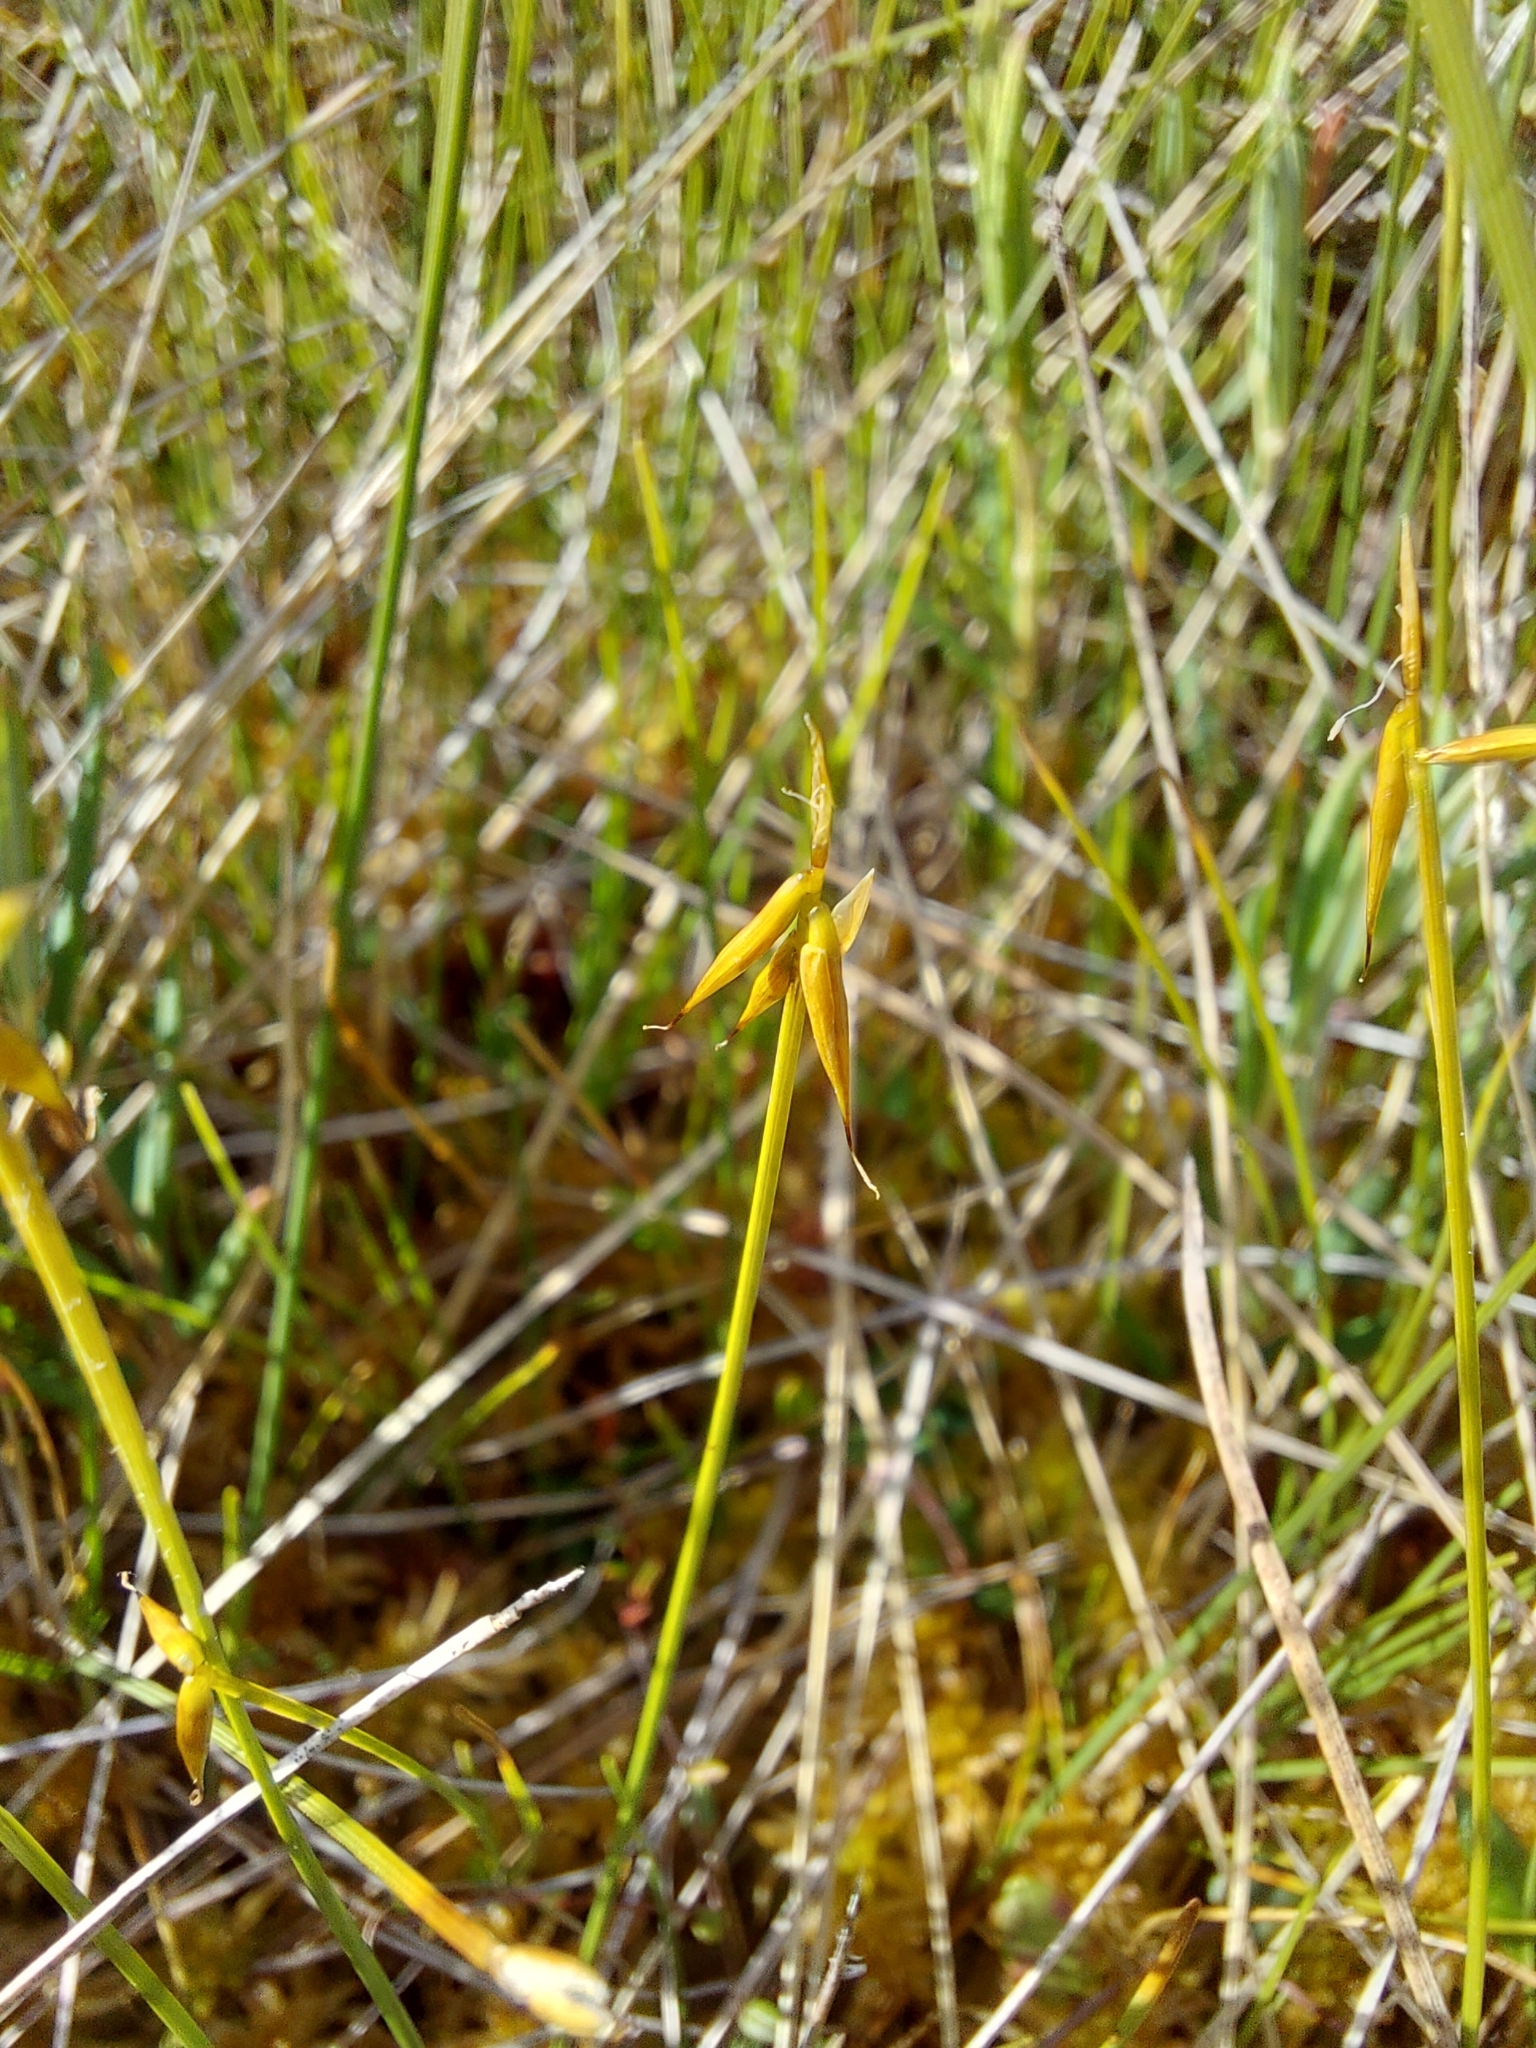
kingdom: Plantae
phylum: Tracheophyta
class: Liliopsida
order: Poales
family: Cyperaceae
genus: Carex
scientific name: Carex pauciflora
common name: Few-flowered sedge
